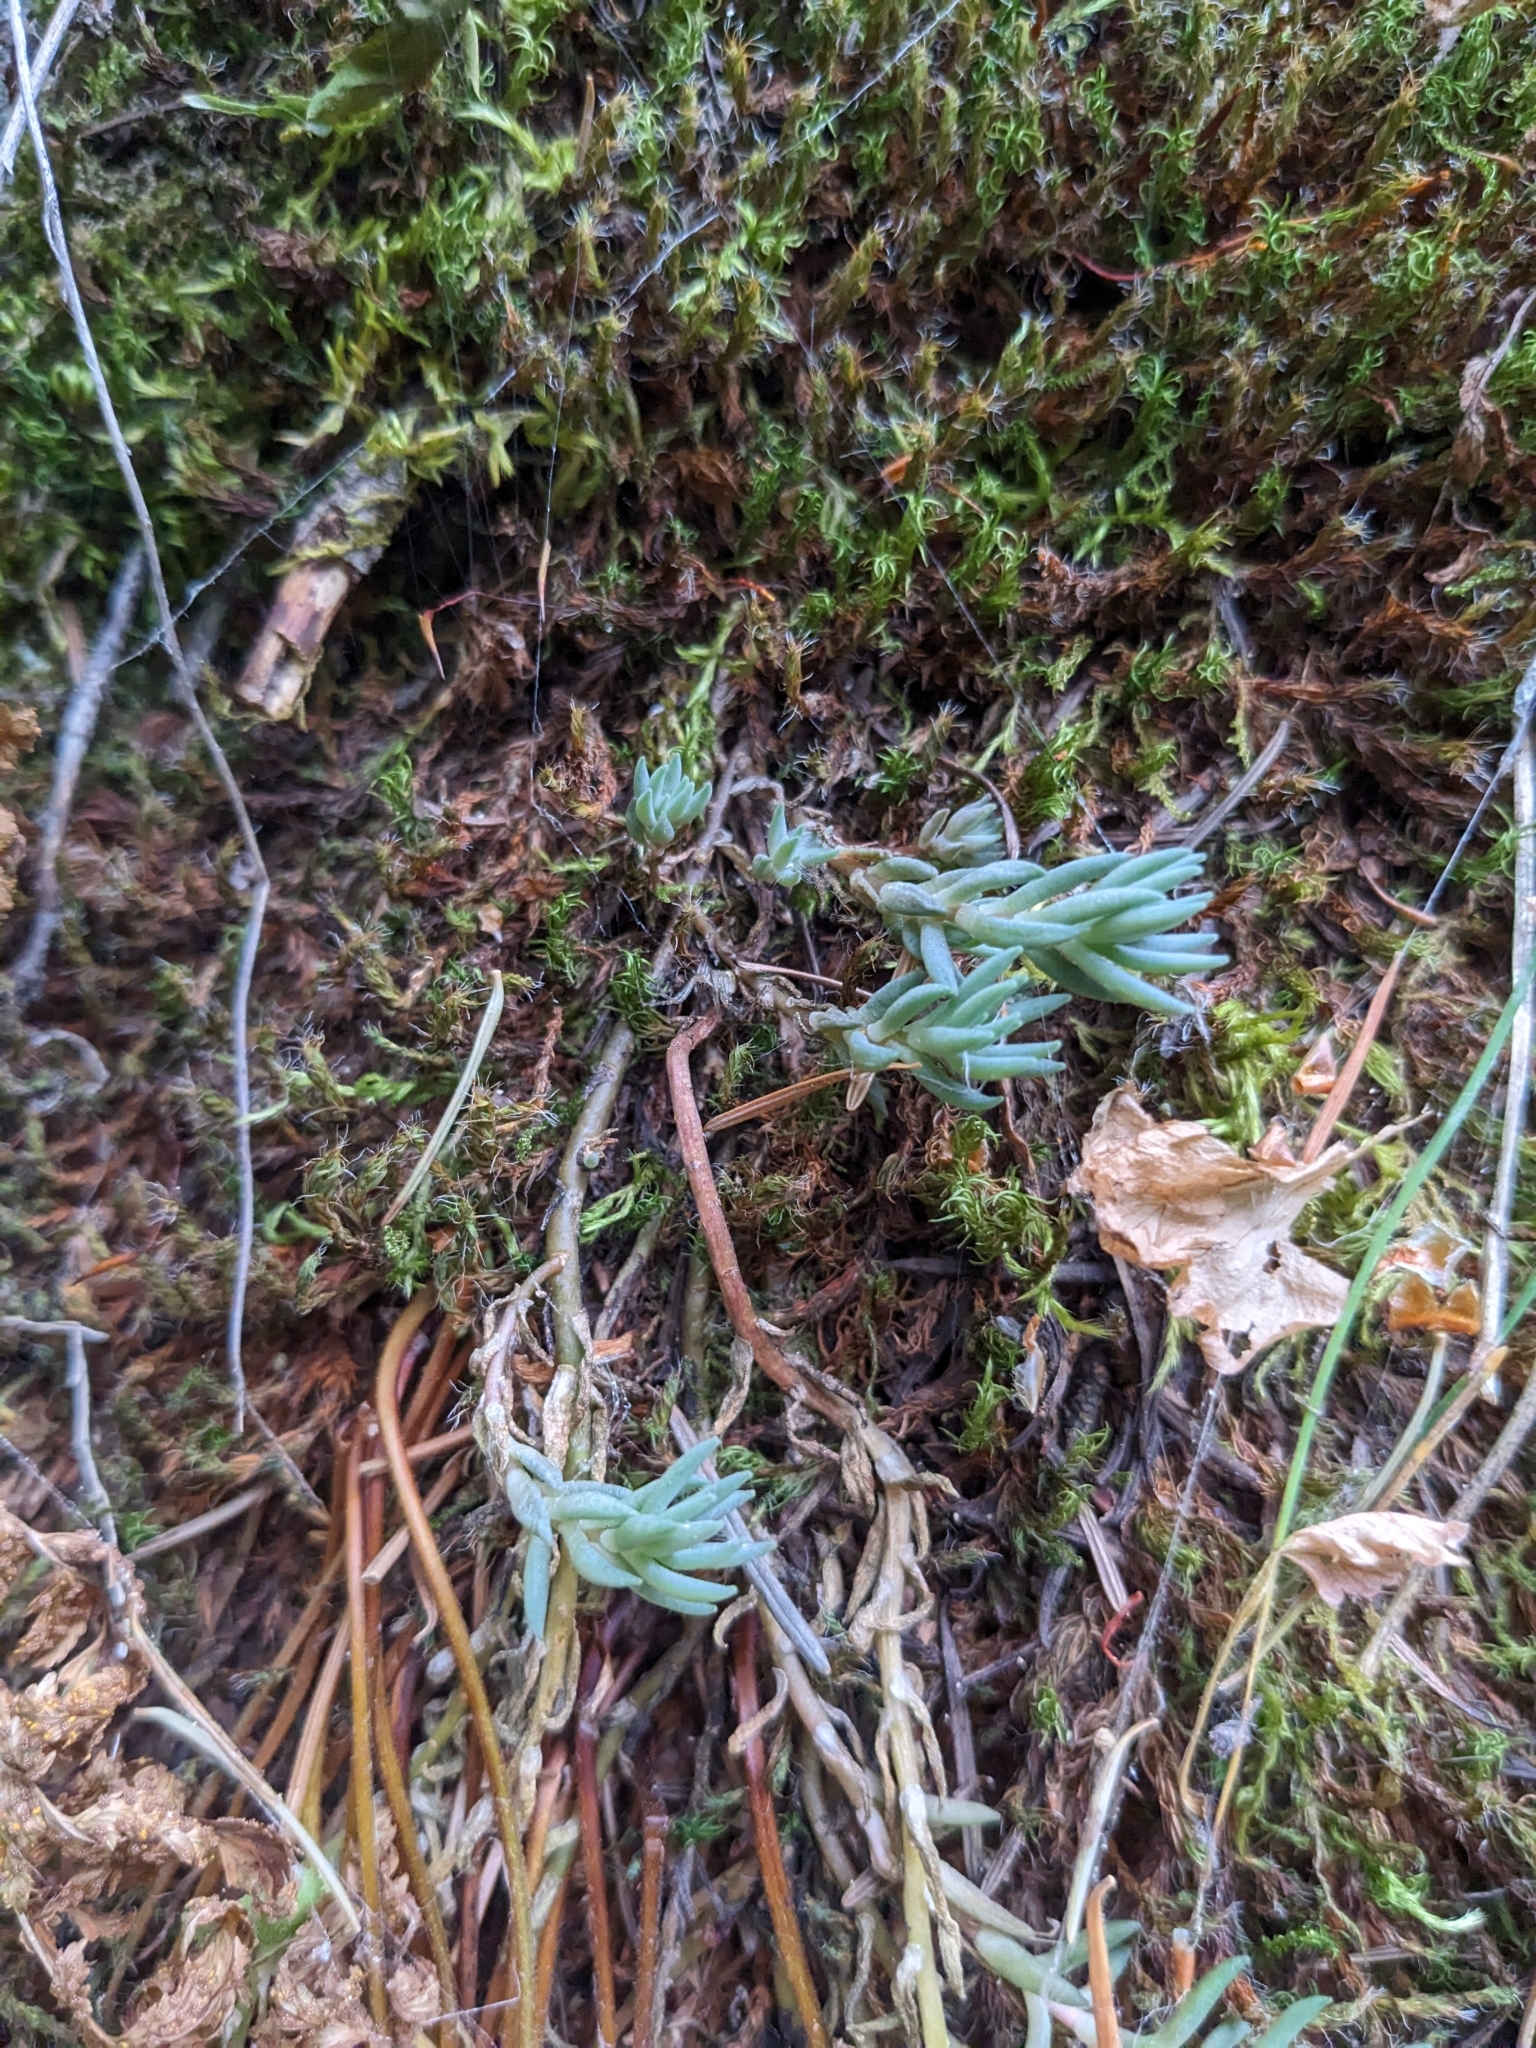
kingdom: Plantae
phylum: Tracheophyta
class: Magnoliopsida
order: Saxifragales
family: Crassulaceae
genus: Sedum
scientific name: Sedum lanceolatum
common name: Common stonecrop
